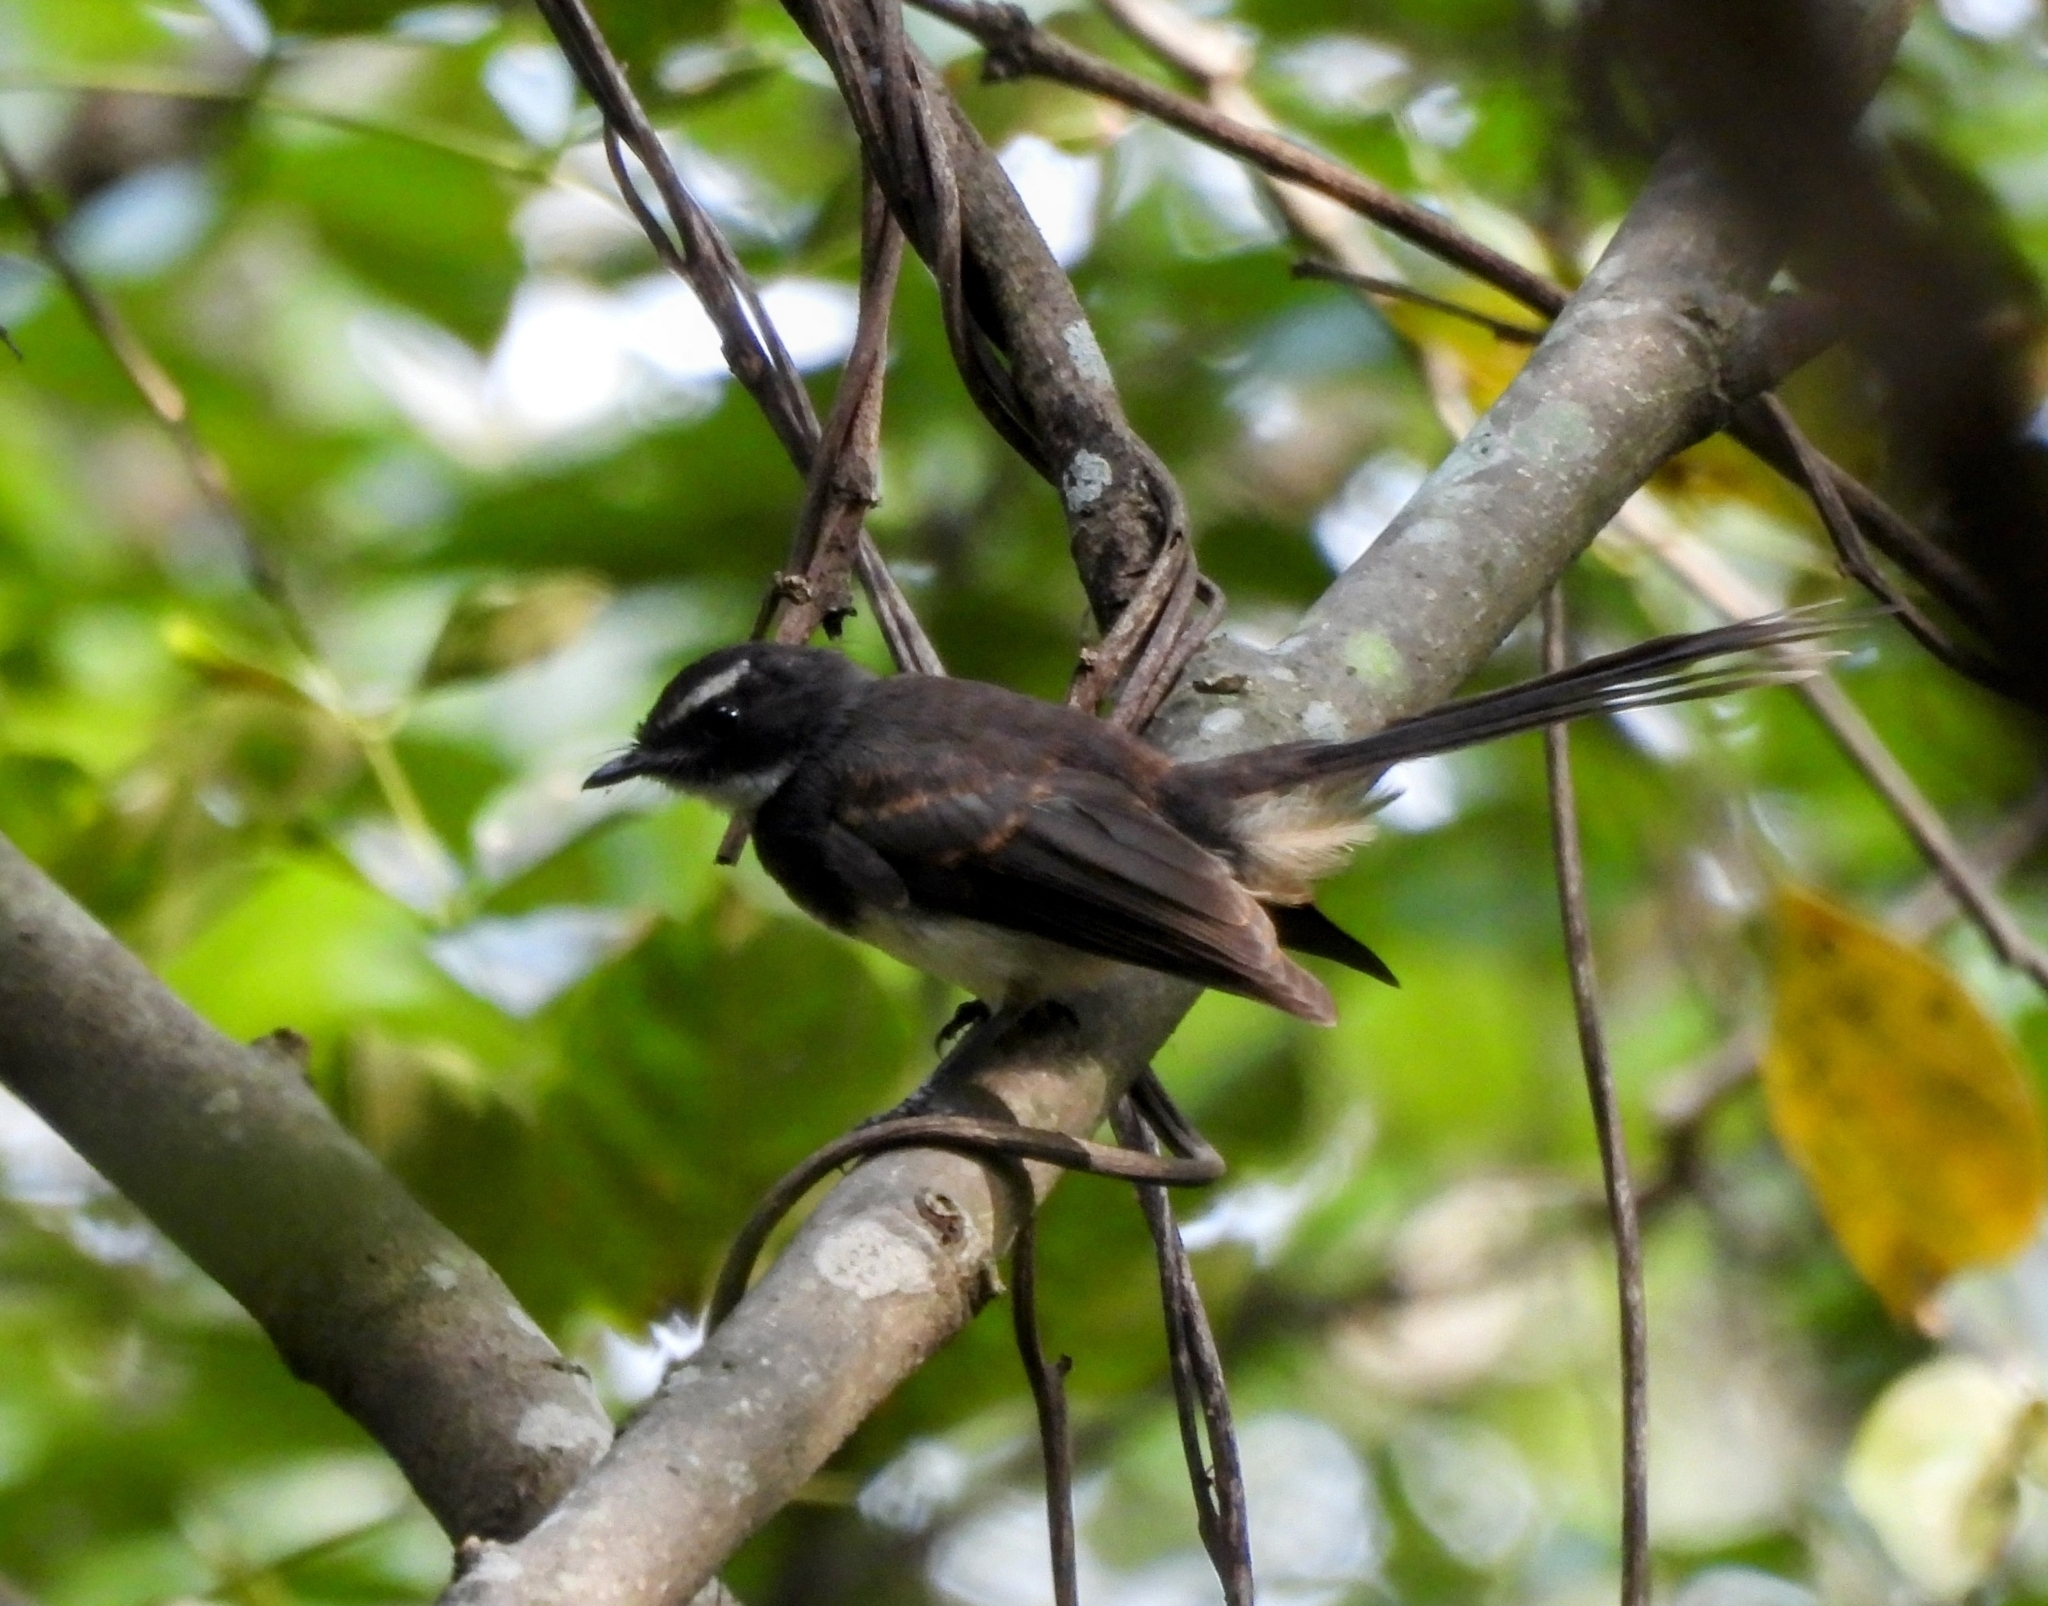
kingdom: Animalia
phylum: Chordata
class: Aves
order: Passeriformes
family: Rhipiduridae
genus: Rhipidura
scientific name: Rhipidura albogularis
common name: White-spotted fantail
